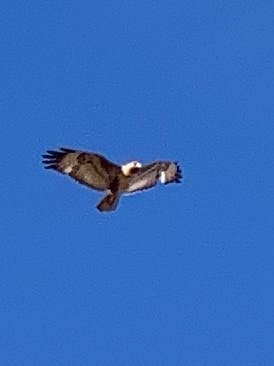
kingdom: Animalia
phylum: Chordata
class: Aves
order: Accipitriformes
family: Accipitridae
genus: Buteo
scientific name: Buteo buteo
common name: Common buzzard
